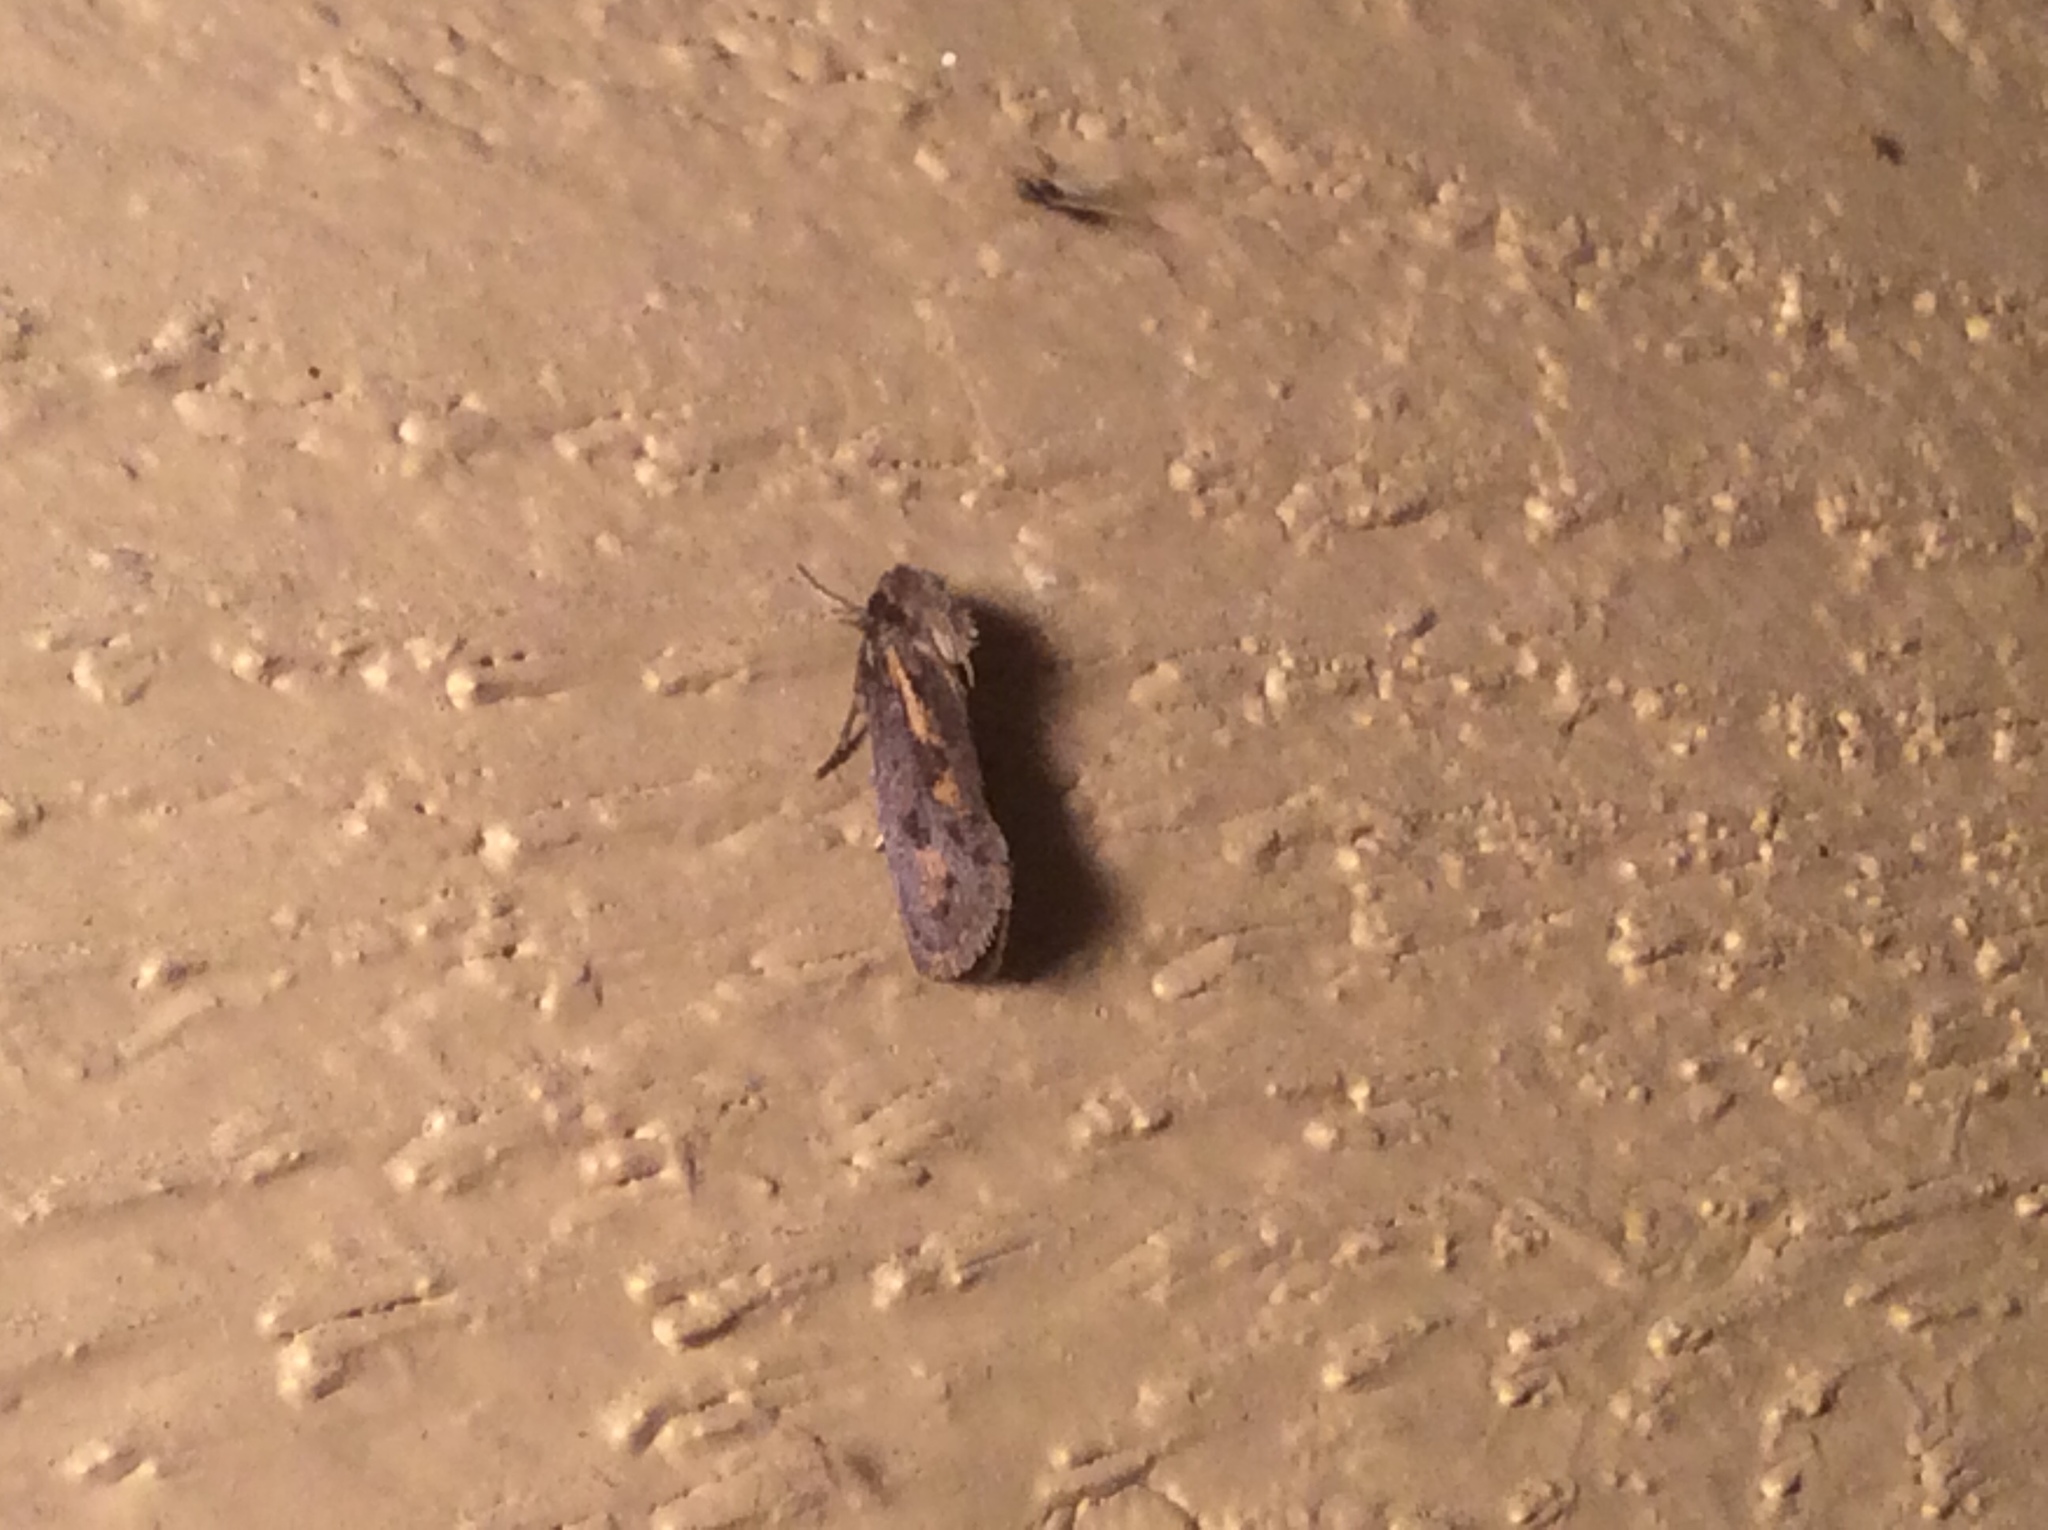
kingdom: Animalia
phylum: Arthropoda
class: Insecta
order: Lepidoptera
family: Tineidae
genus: Acrolophus
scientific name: Acrolophus popeanella
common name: Clemens' grass tubeworm moth
